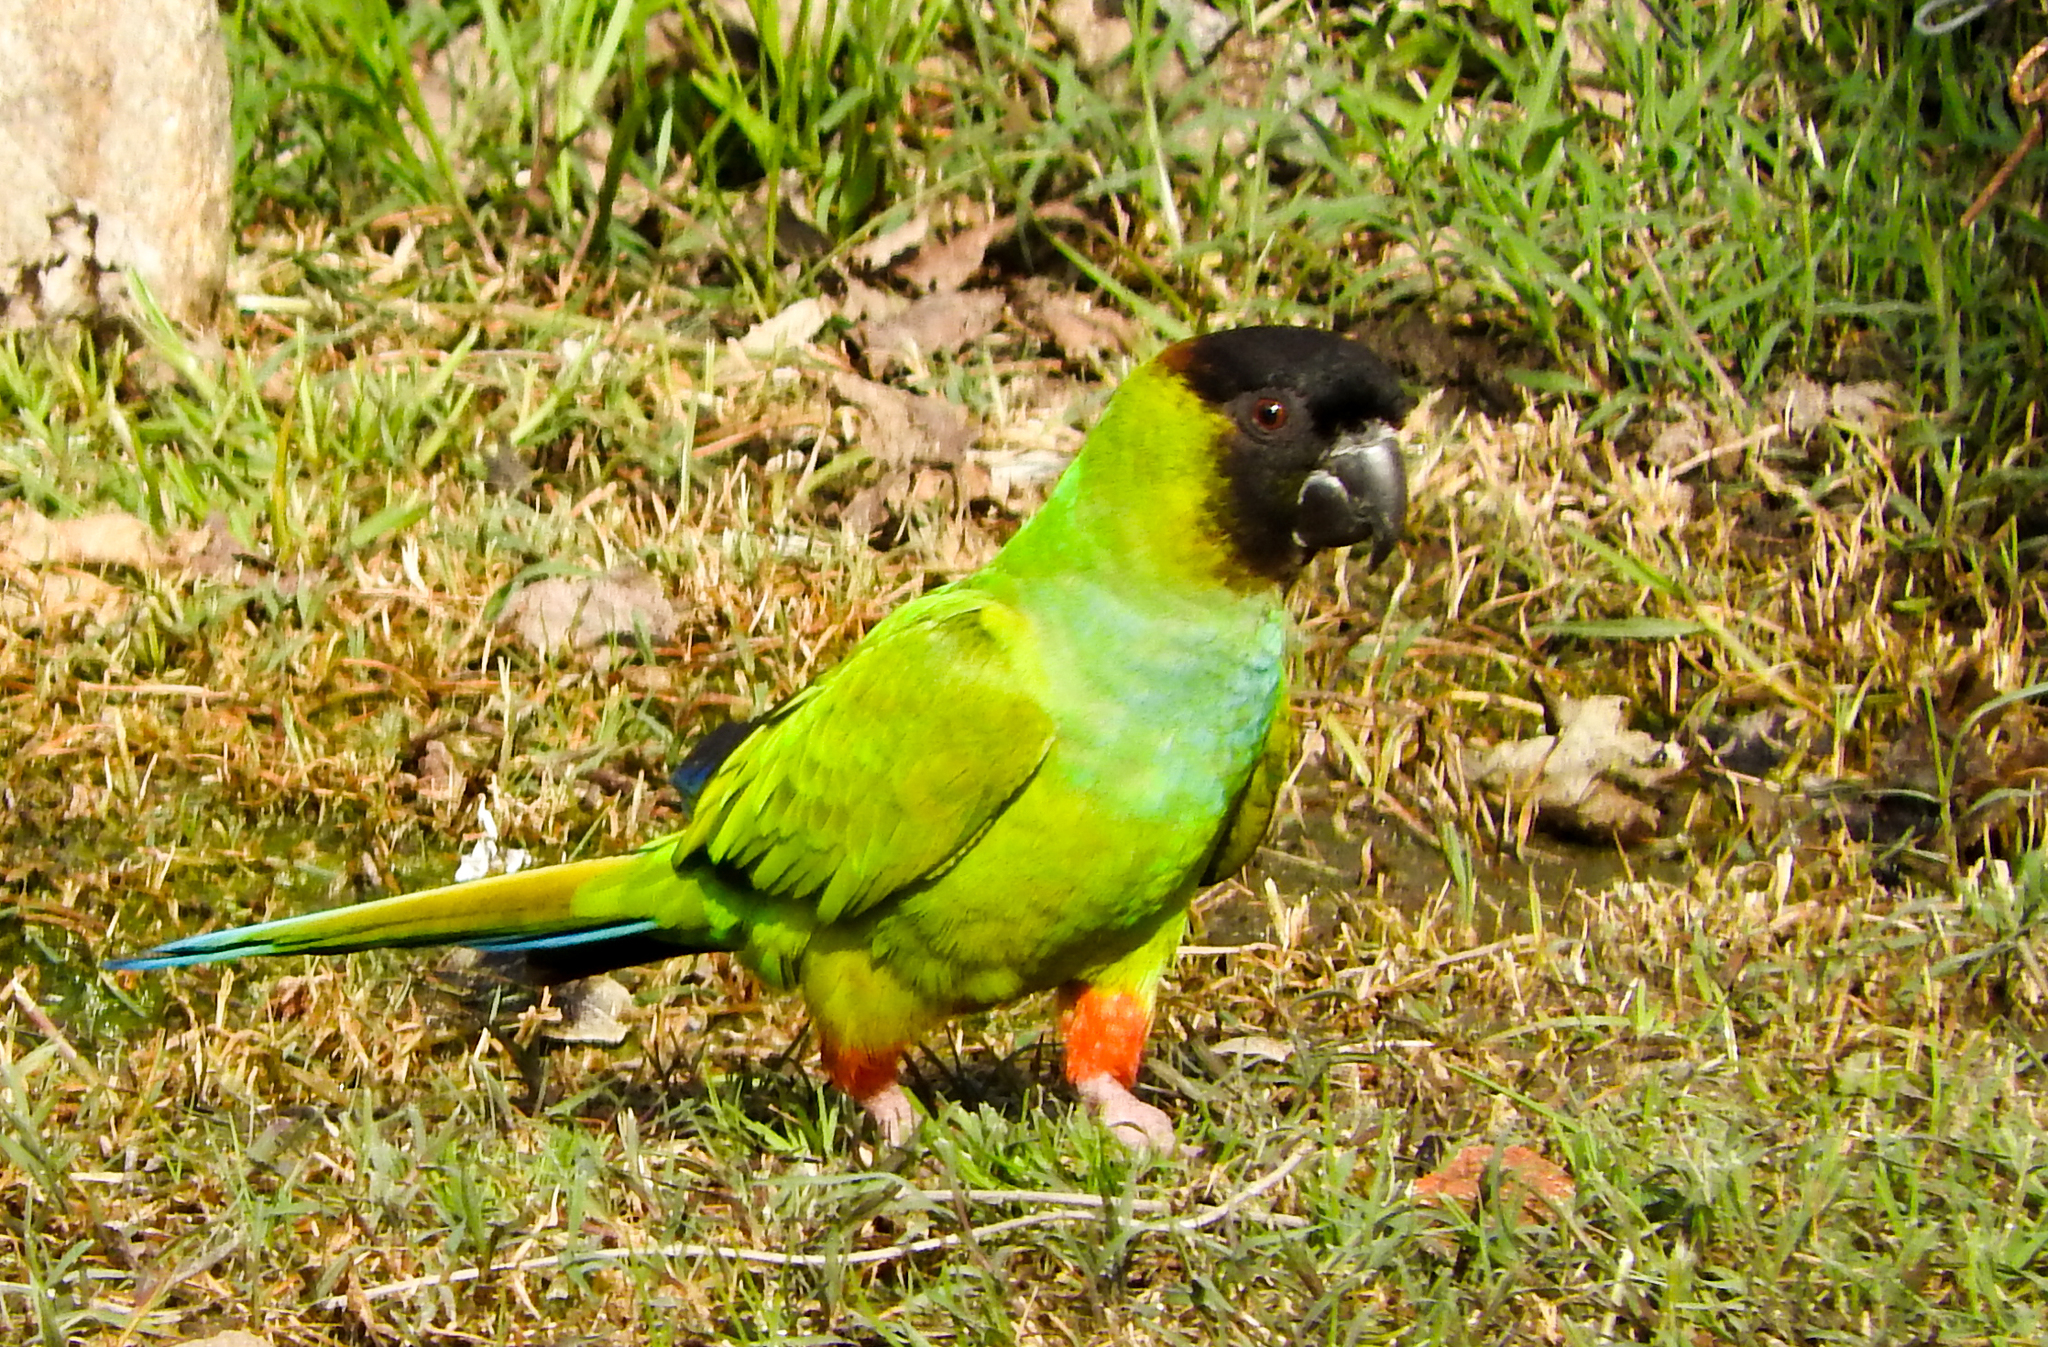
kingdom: Animalia
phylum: Chordata
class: Aves
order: Psittaciformes
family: Psittacidae
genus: Nandayus
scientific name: Nandayus nenday
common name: Nanday parakeet
